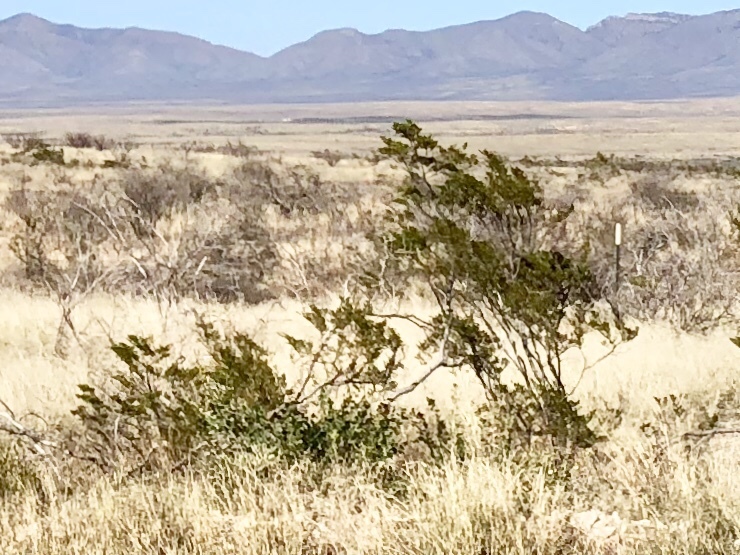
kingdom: Plantae
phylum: Tracheophyta
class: Magnoliopsida
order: Zygophyllales
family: Zygophyllaceae
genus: Larrea
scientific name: Larrea tridentata
